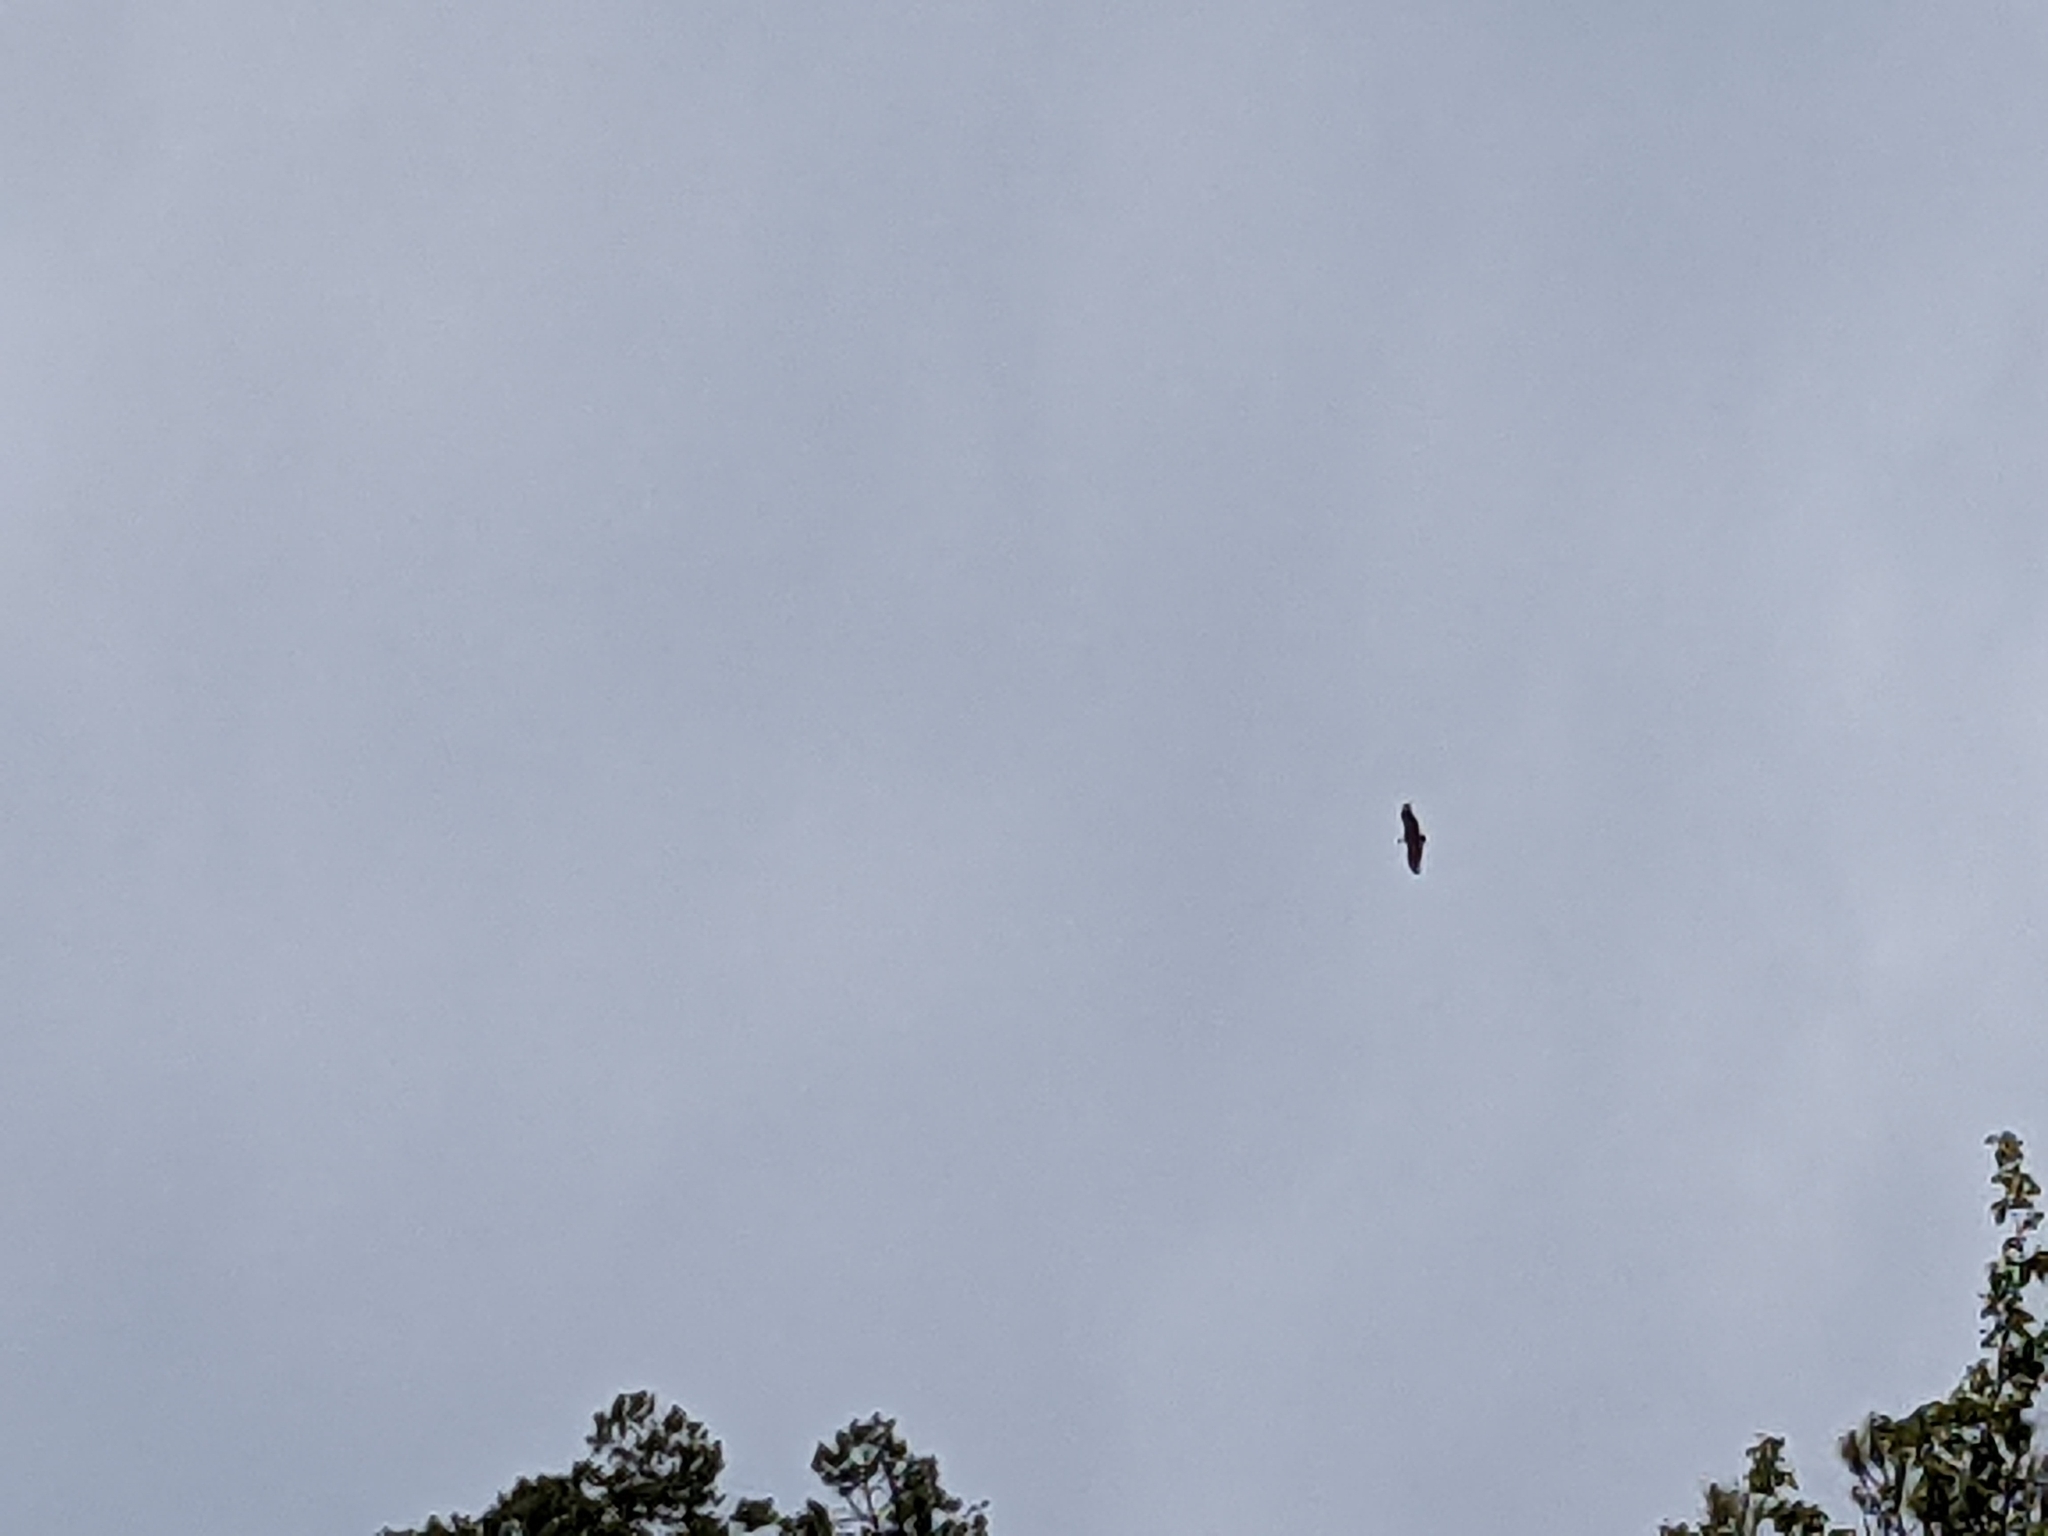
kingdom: Animalia
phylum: Chordata
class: Aves
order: Accipitriformes
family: Accipitridae
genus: Gyps
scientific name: Gyps fulvus
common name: Griffon vulture
